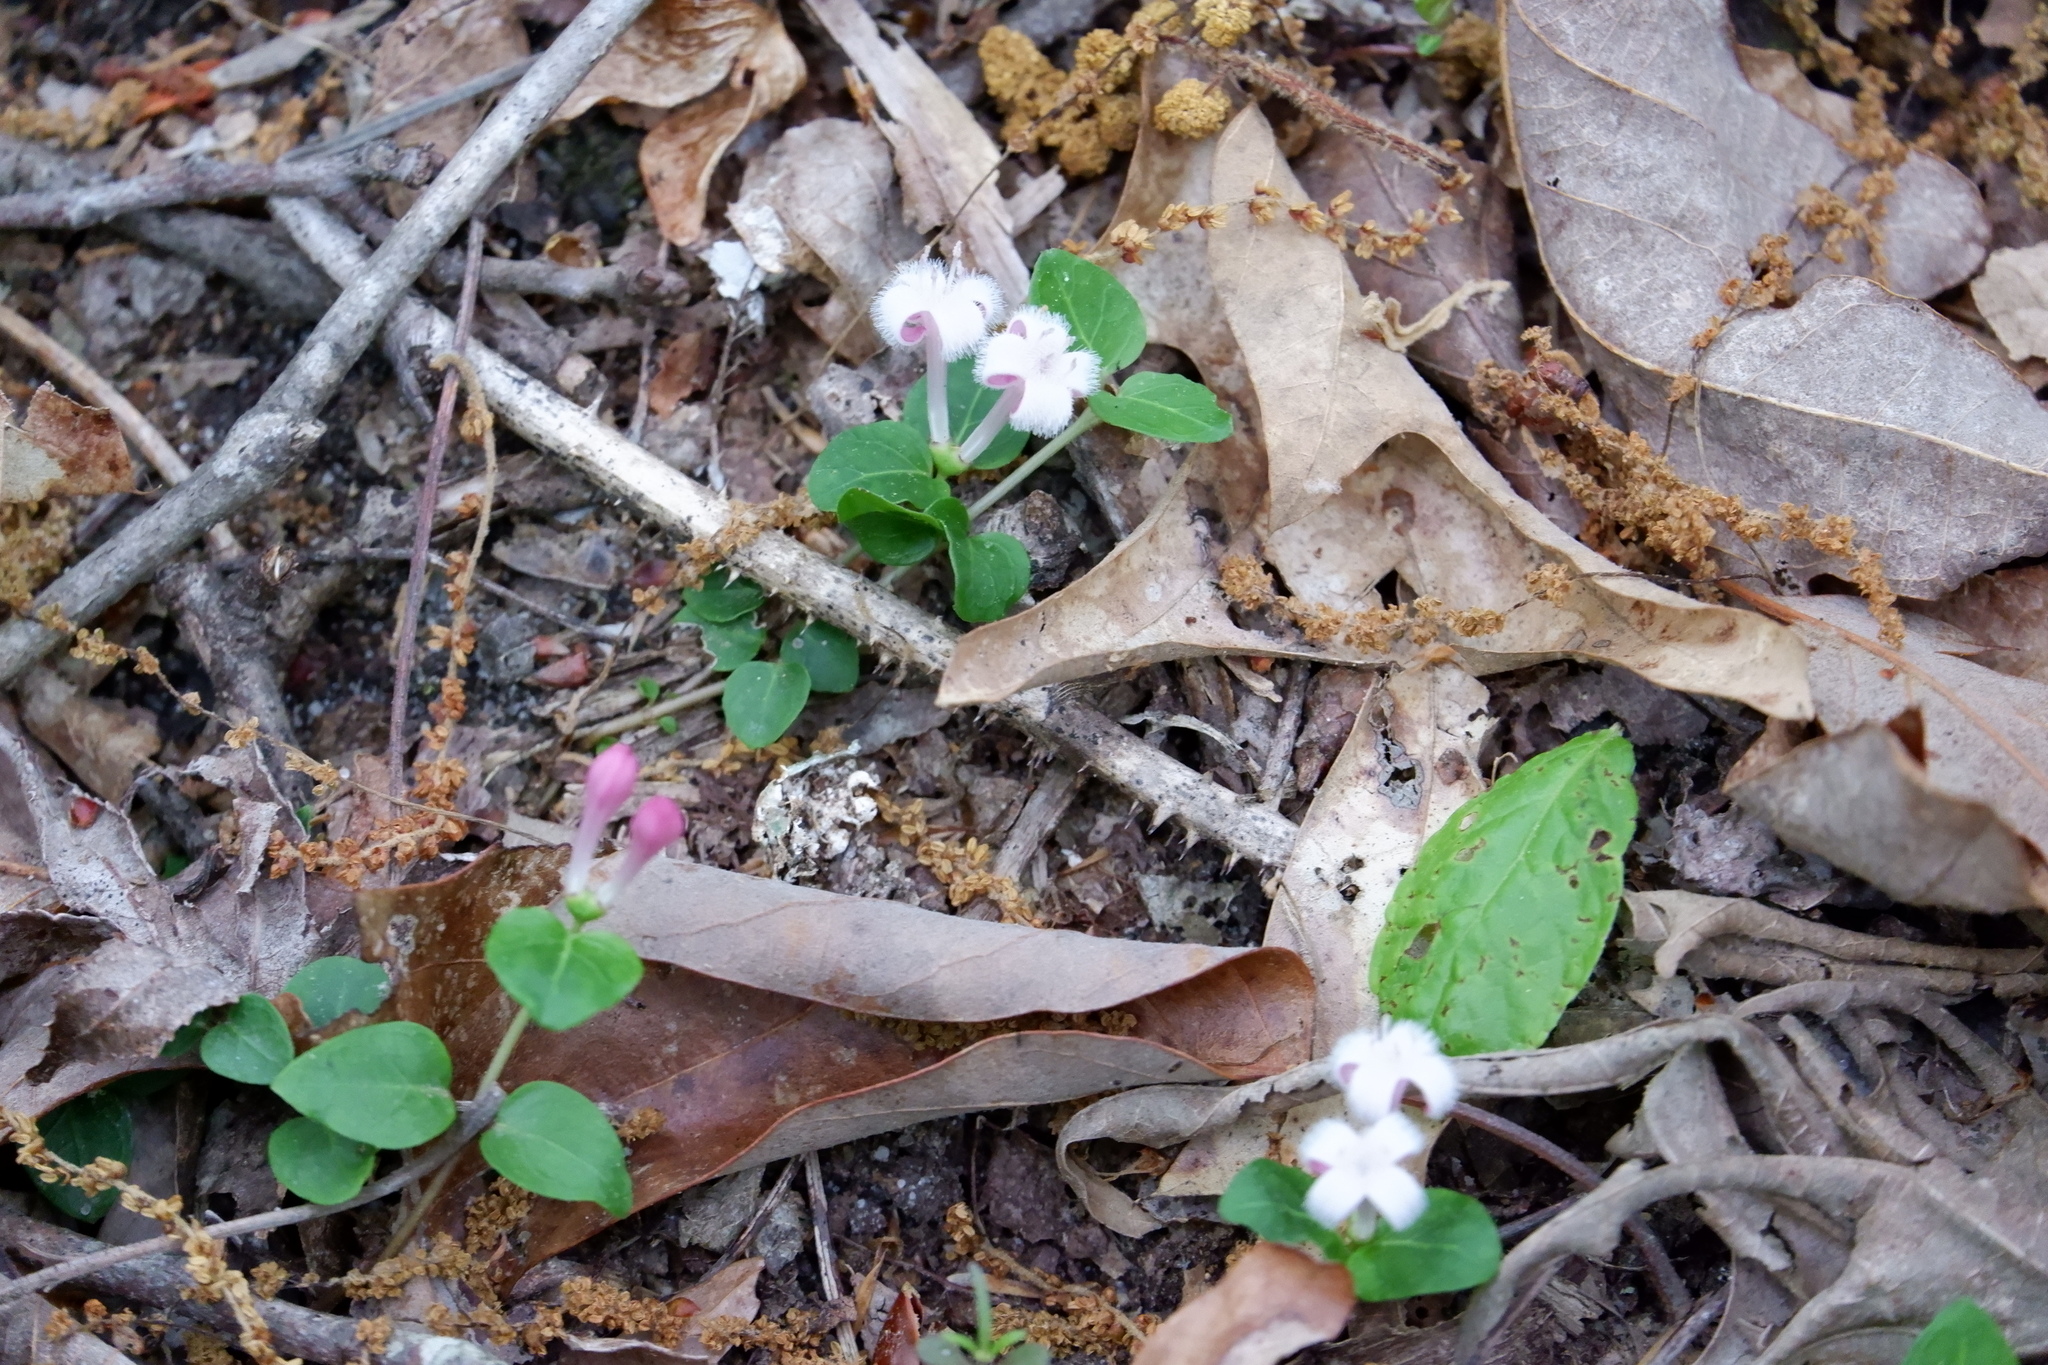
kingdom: Plantae
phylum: Tracheophyta
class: Magnoliopsida
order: Gentianales
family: Rubiaceae
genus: Mitchella
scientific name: Mitchella repens
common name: Partridge-berry
